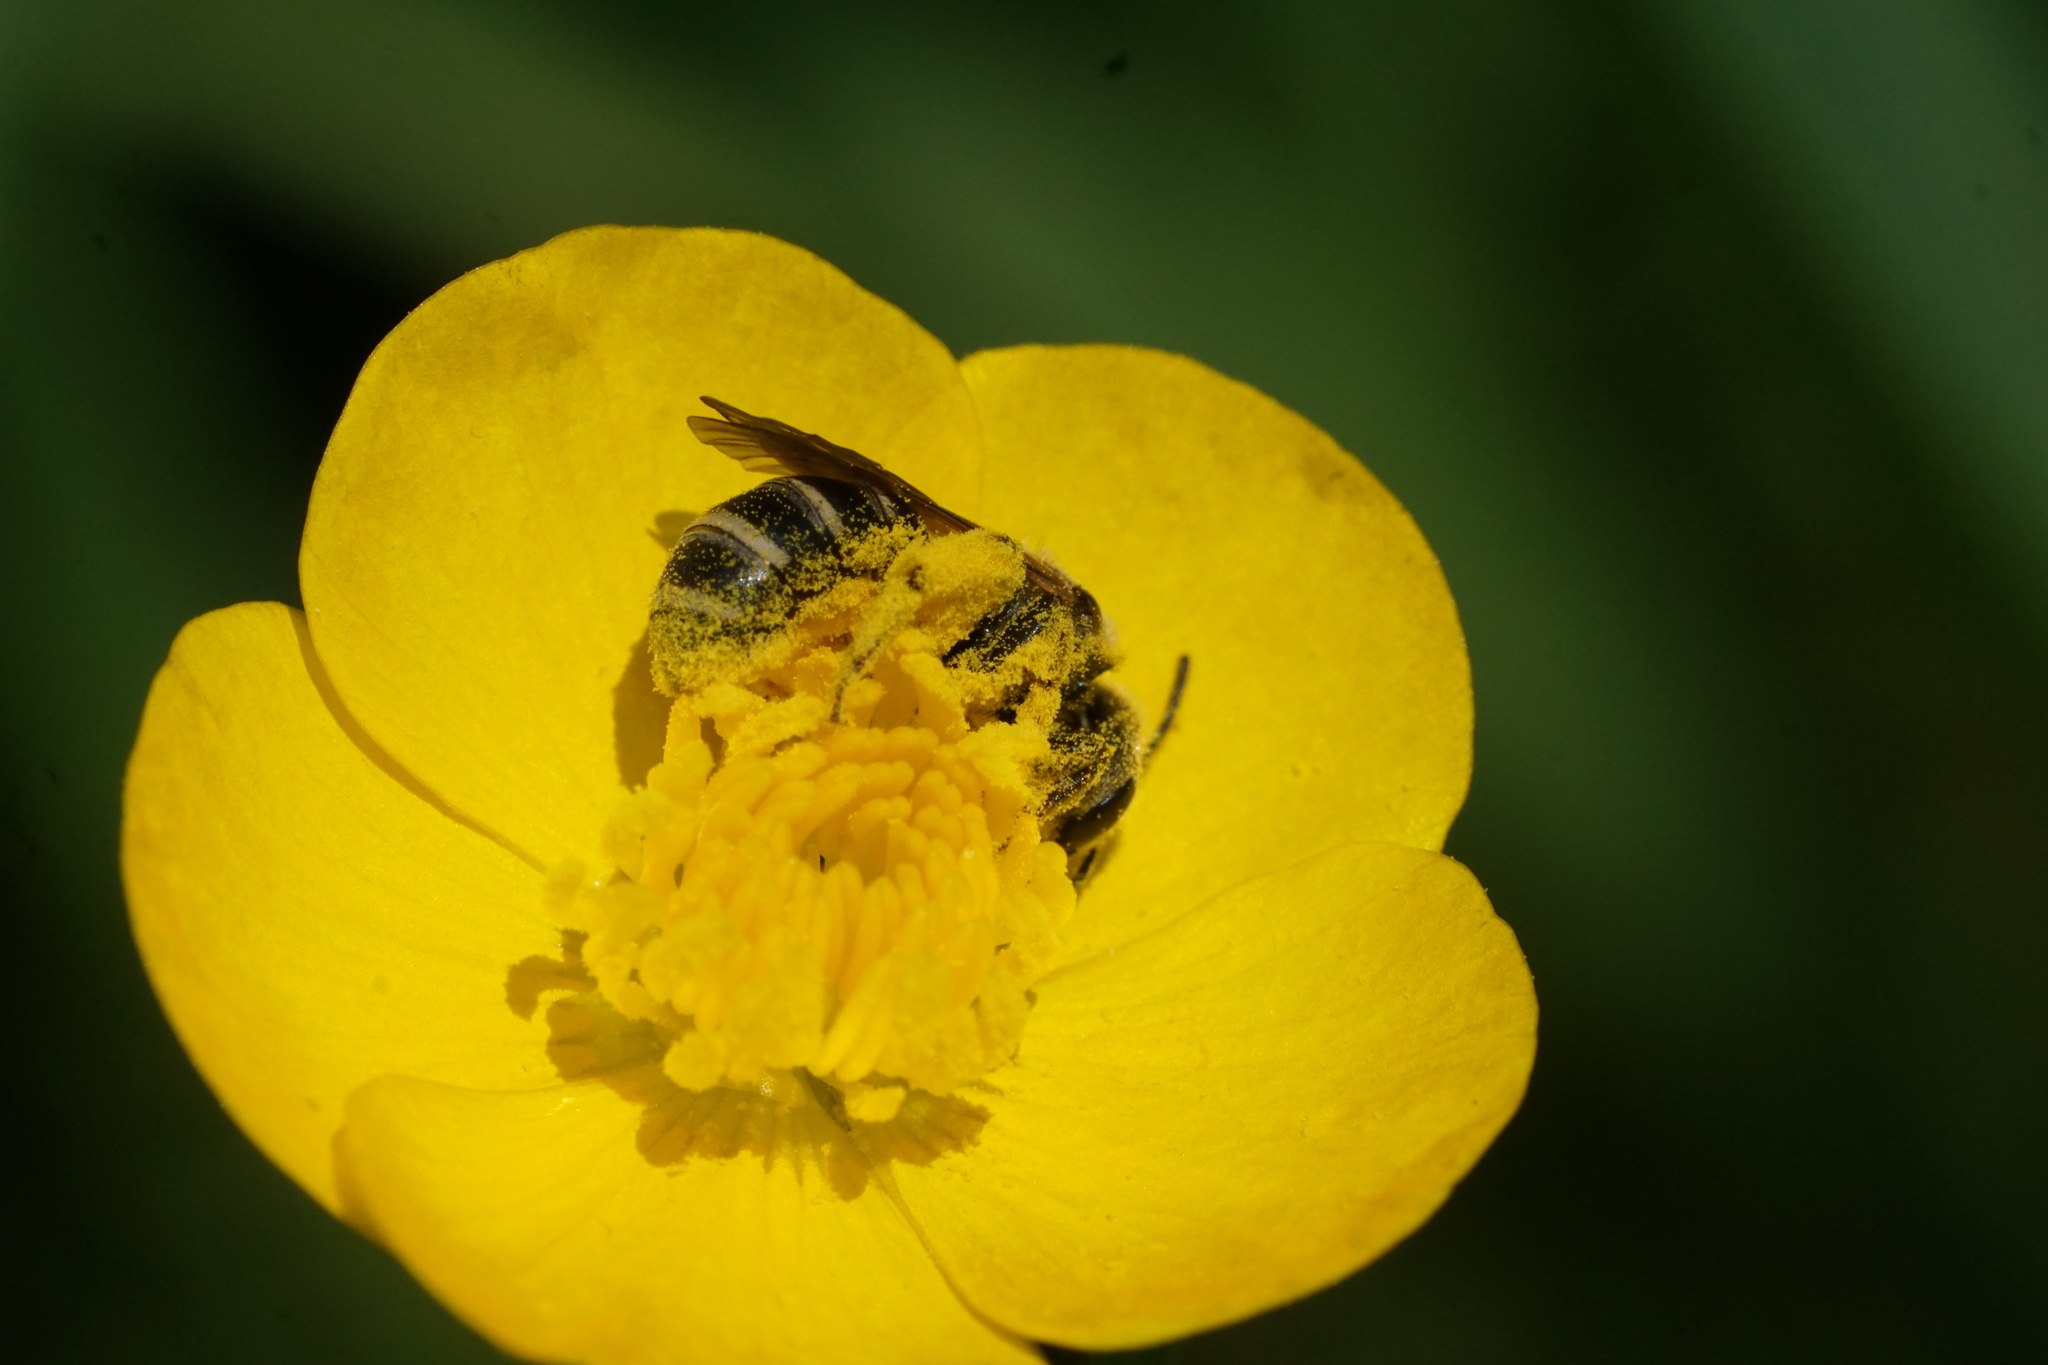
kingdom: Animalia
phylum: Arthropoda
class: Insecta
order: Hymenoptera
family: Halictidae
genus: Halictus
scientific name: Halictus ligatus
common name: Ligated furrow bee
